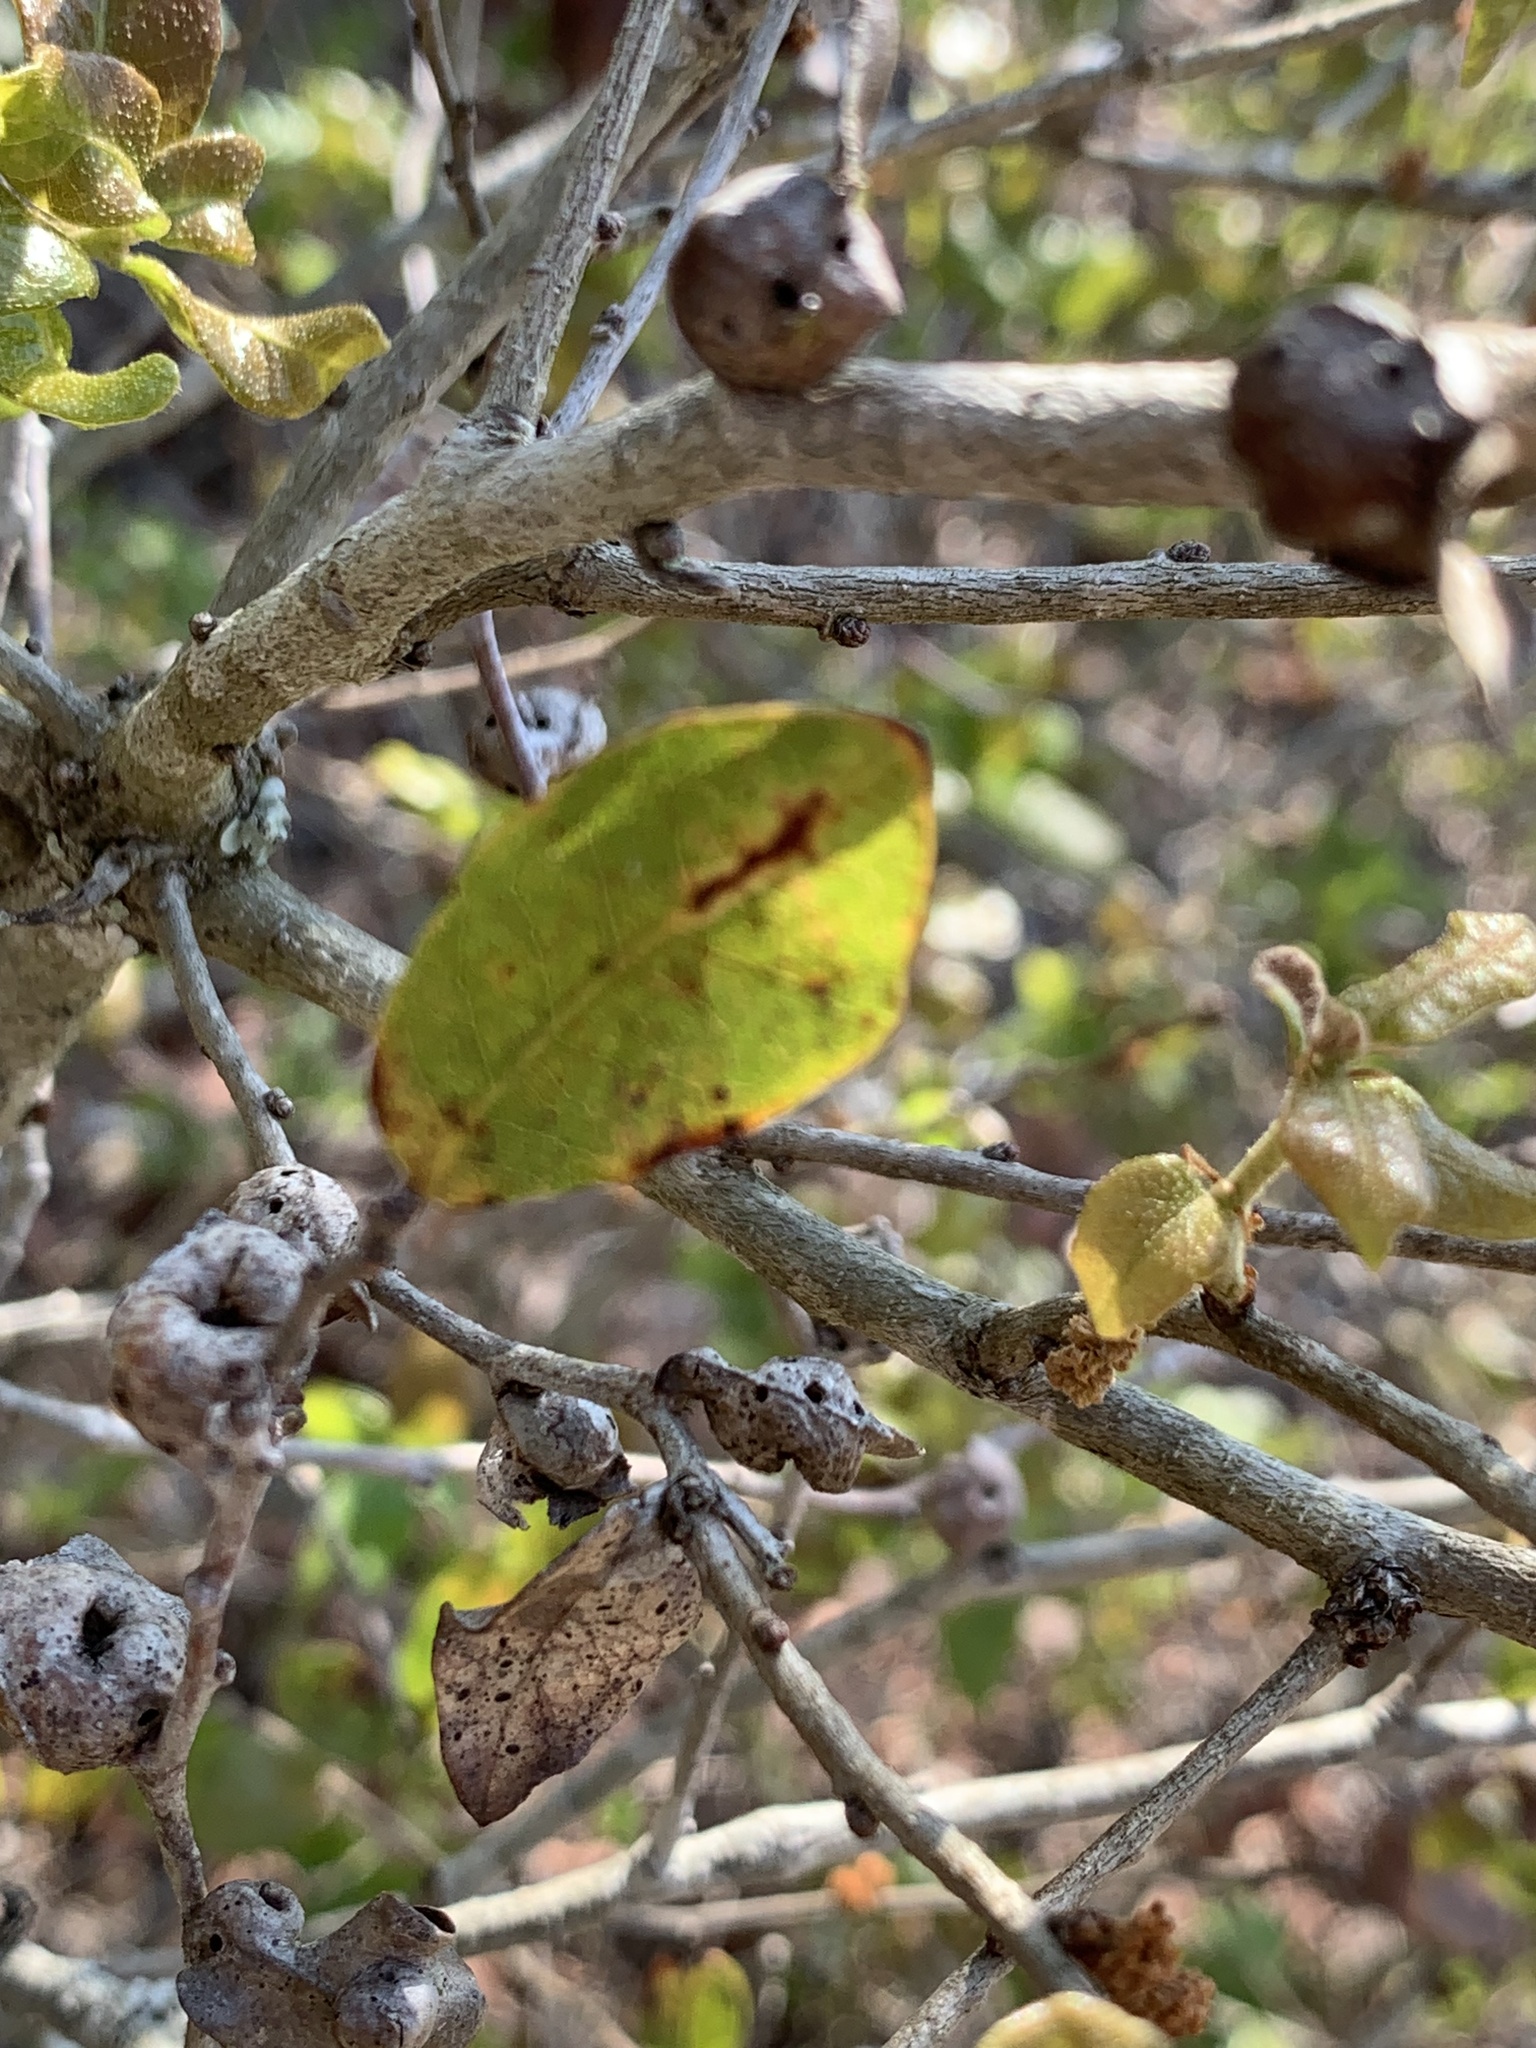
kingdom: Animalia
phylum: Arthropoda
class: Insecta
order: Hymenoptera
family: Cynipidae
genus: Andricus
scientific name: Andricus
